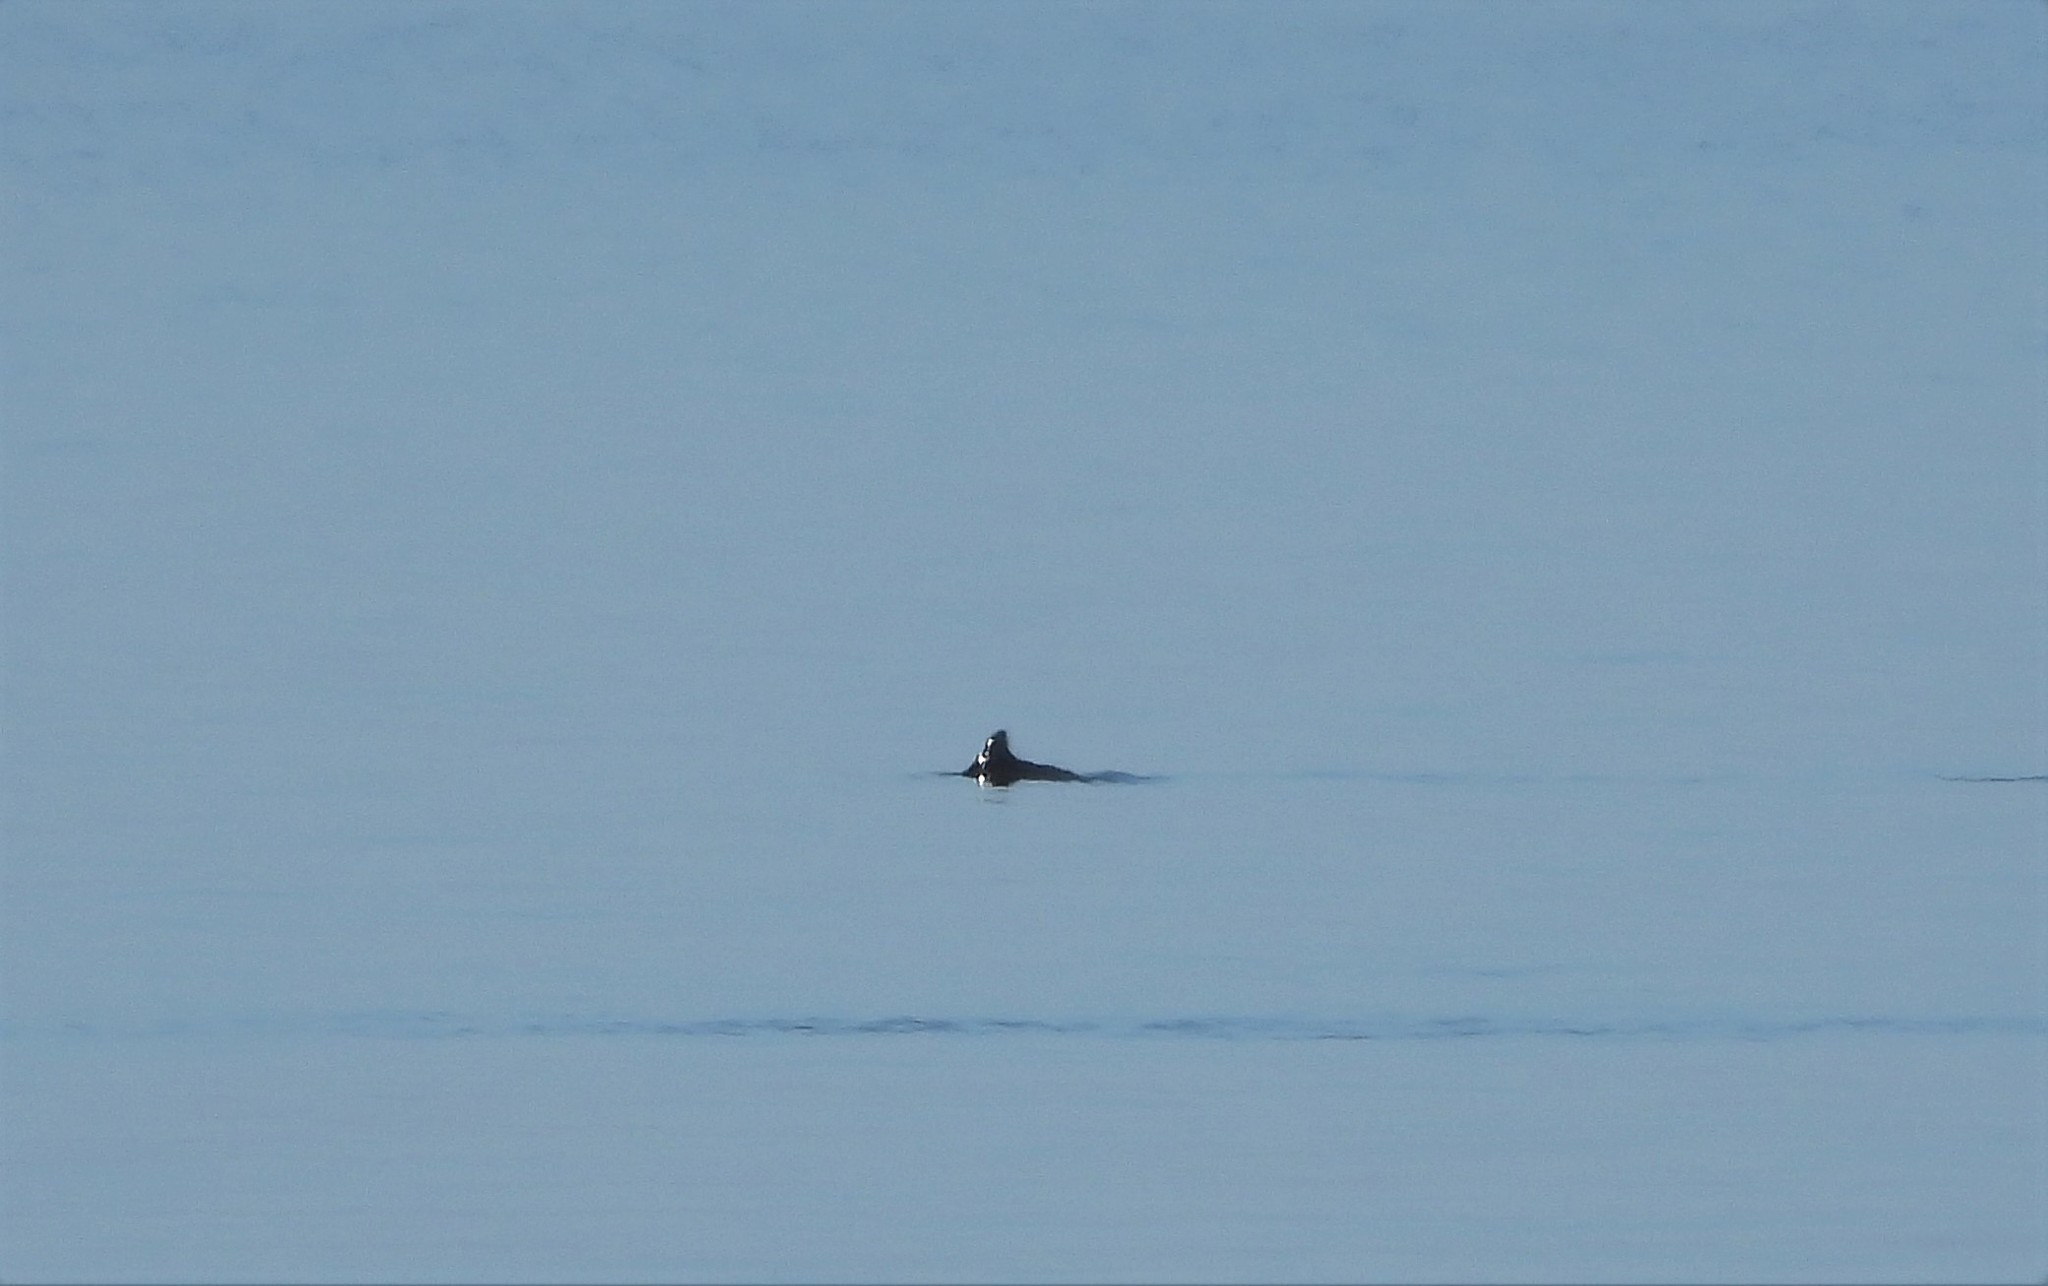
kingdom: Animalia
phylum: Chordata
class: Mammalia
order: Cetacea
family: Phocoenidae
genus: Phocoena
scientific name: Phocoena phocoena
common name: Harbor porpoise
